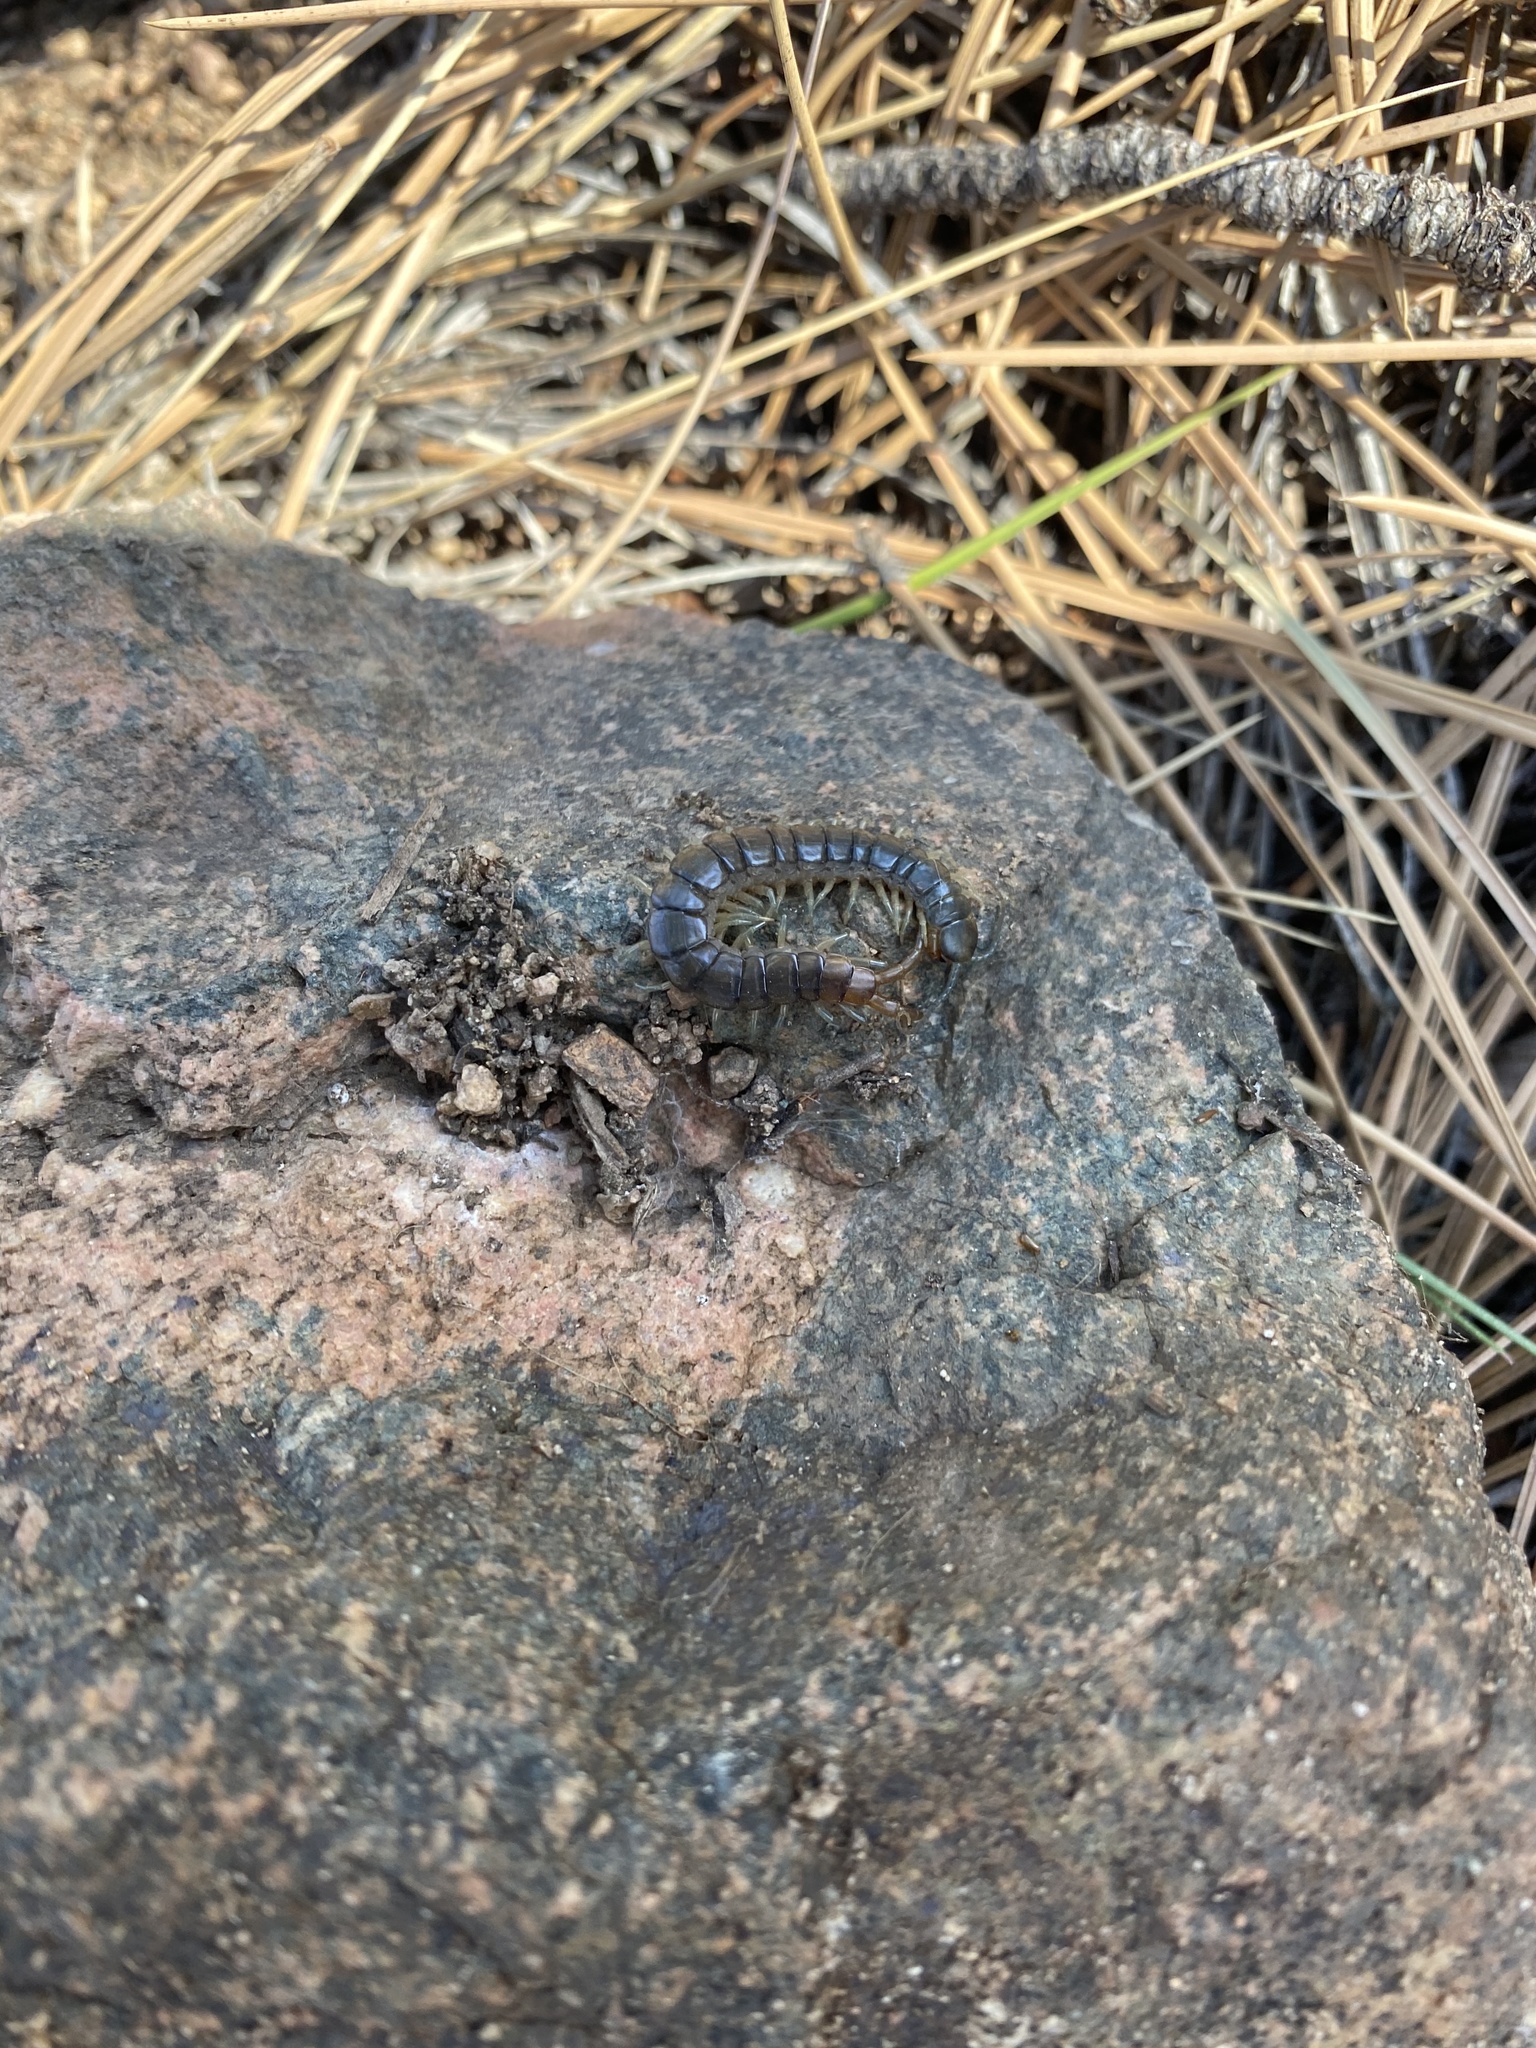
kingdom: Animalia
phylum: Arthropoda
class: Chilopoda
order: Scolopendromorpha
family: Scolopendridae
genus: Scolopendra
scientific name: Scolopendra viridis
